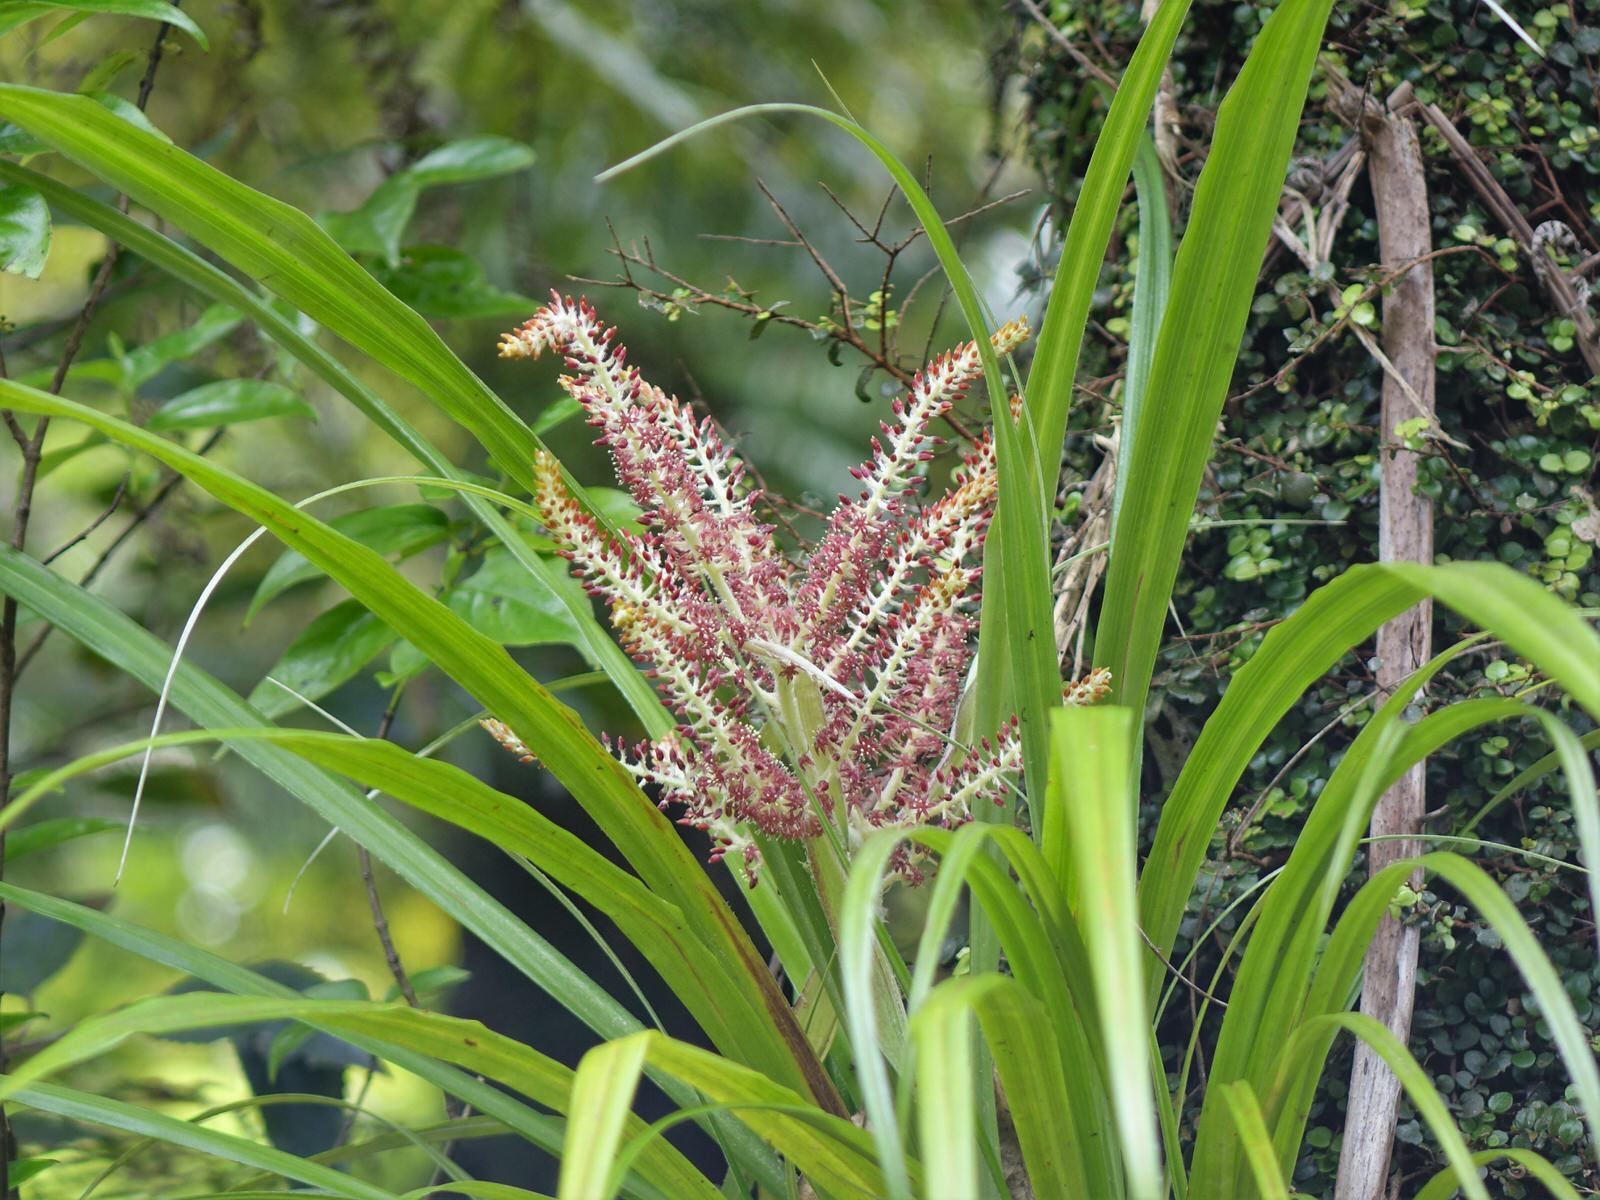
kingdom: Plantae
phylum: Tracheophyta
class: Liliopsida
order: Asparagales
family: Asteliaceae
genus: Astelia
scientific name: Astelia solandri
